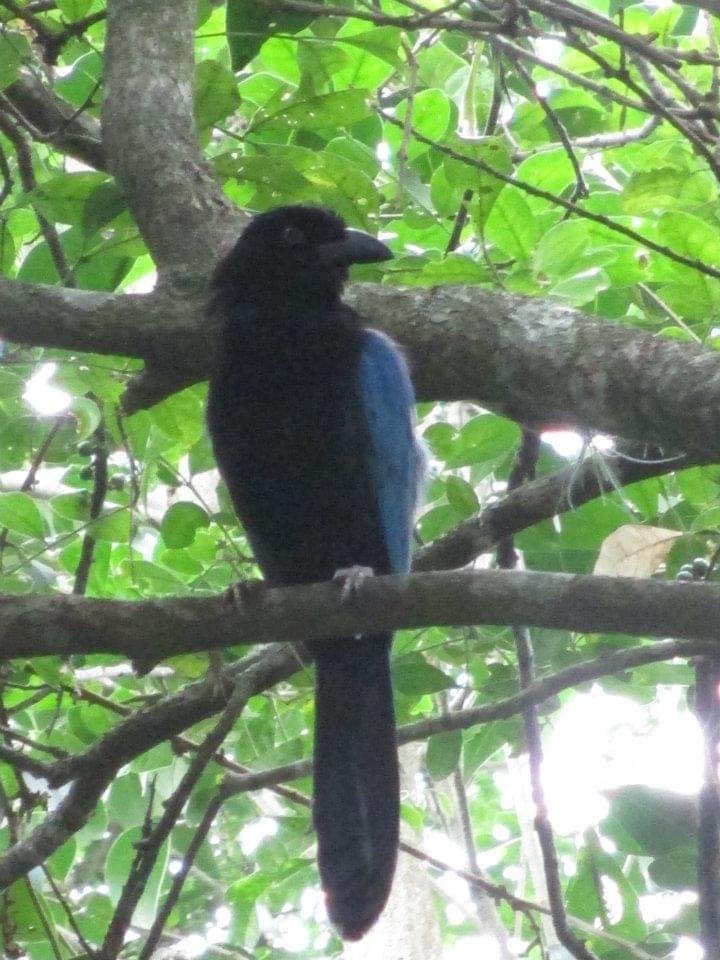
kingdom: Animalia
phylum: Chordata
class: Aves
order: Passeriformes
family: Corvidae
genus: Cyanocorax
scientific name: Cyanocorax sanblasianus
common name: San blas jay
